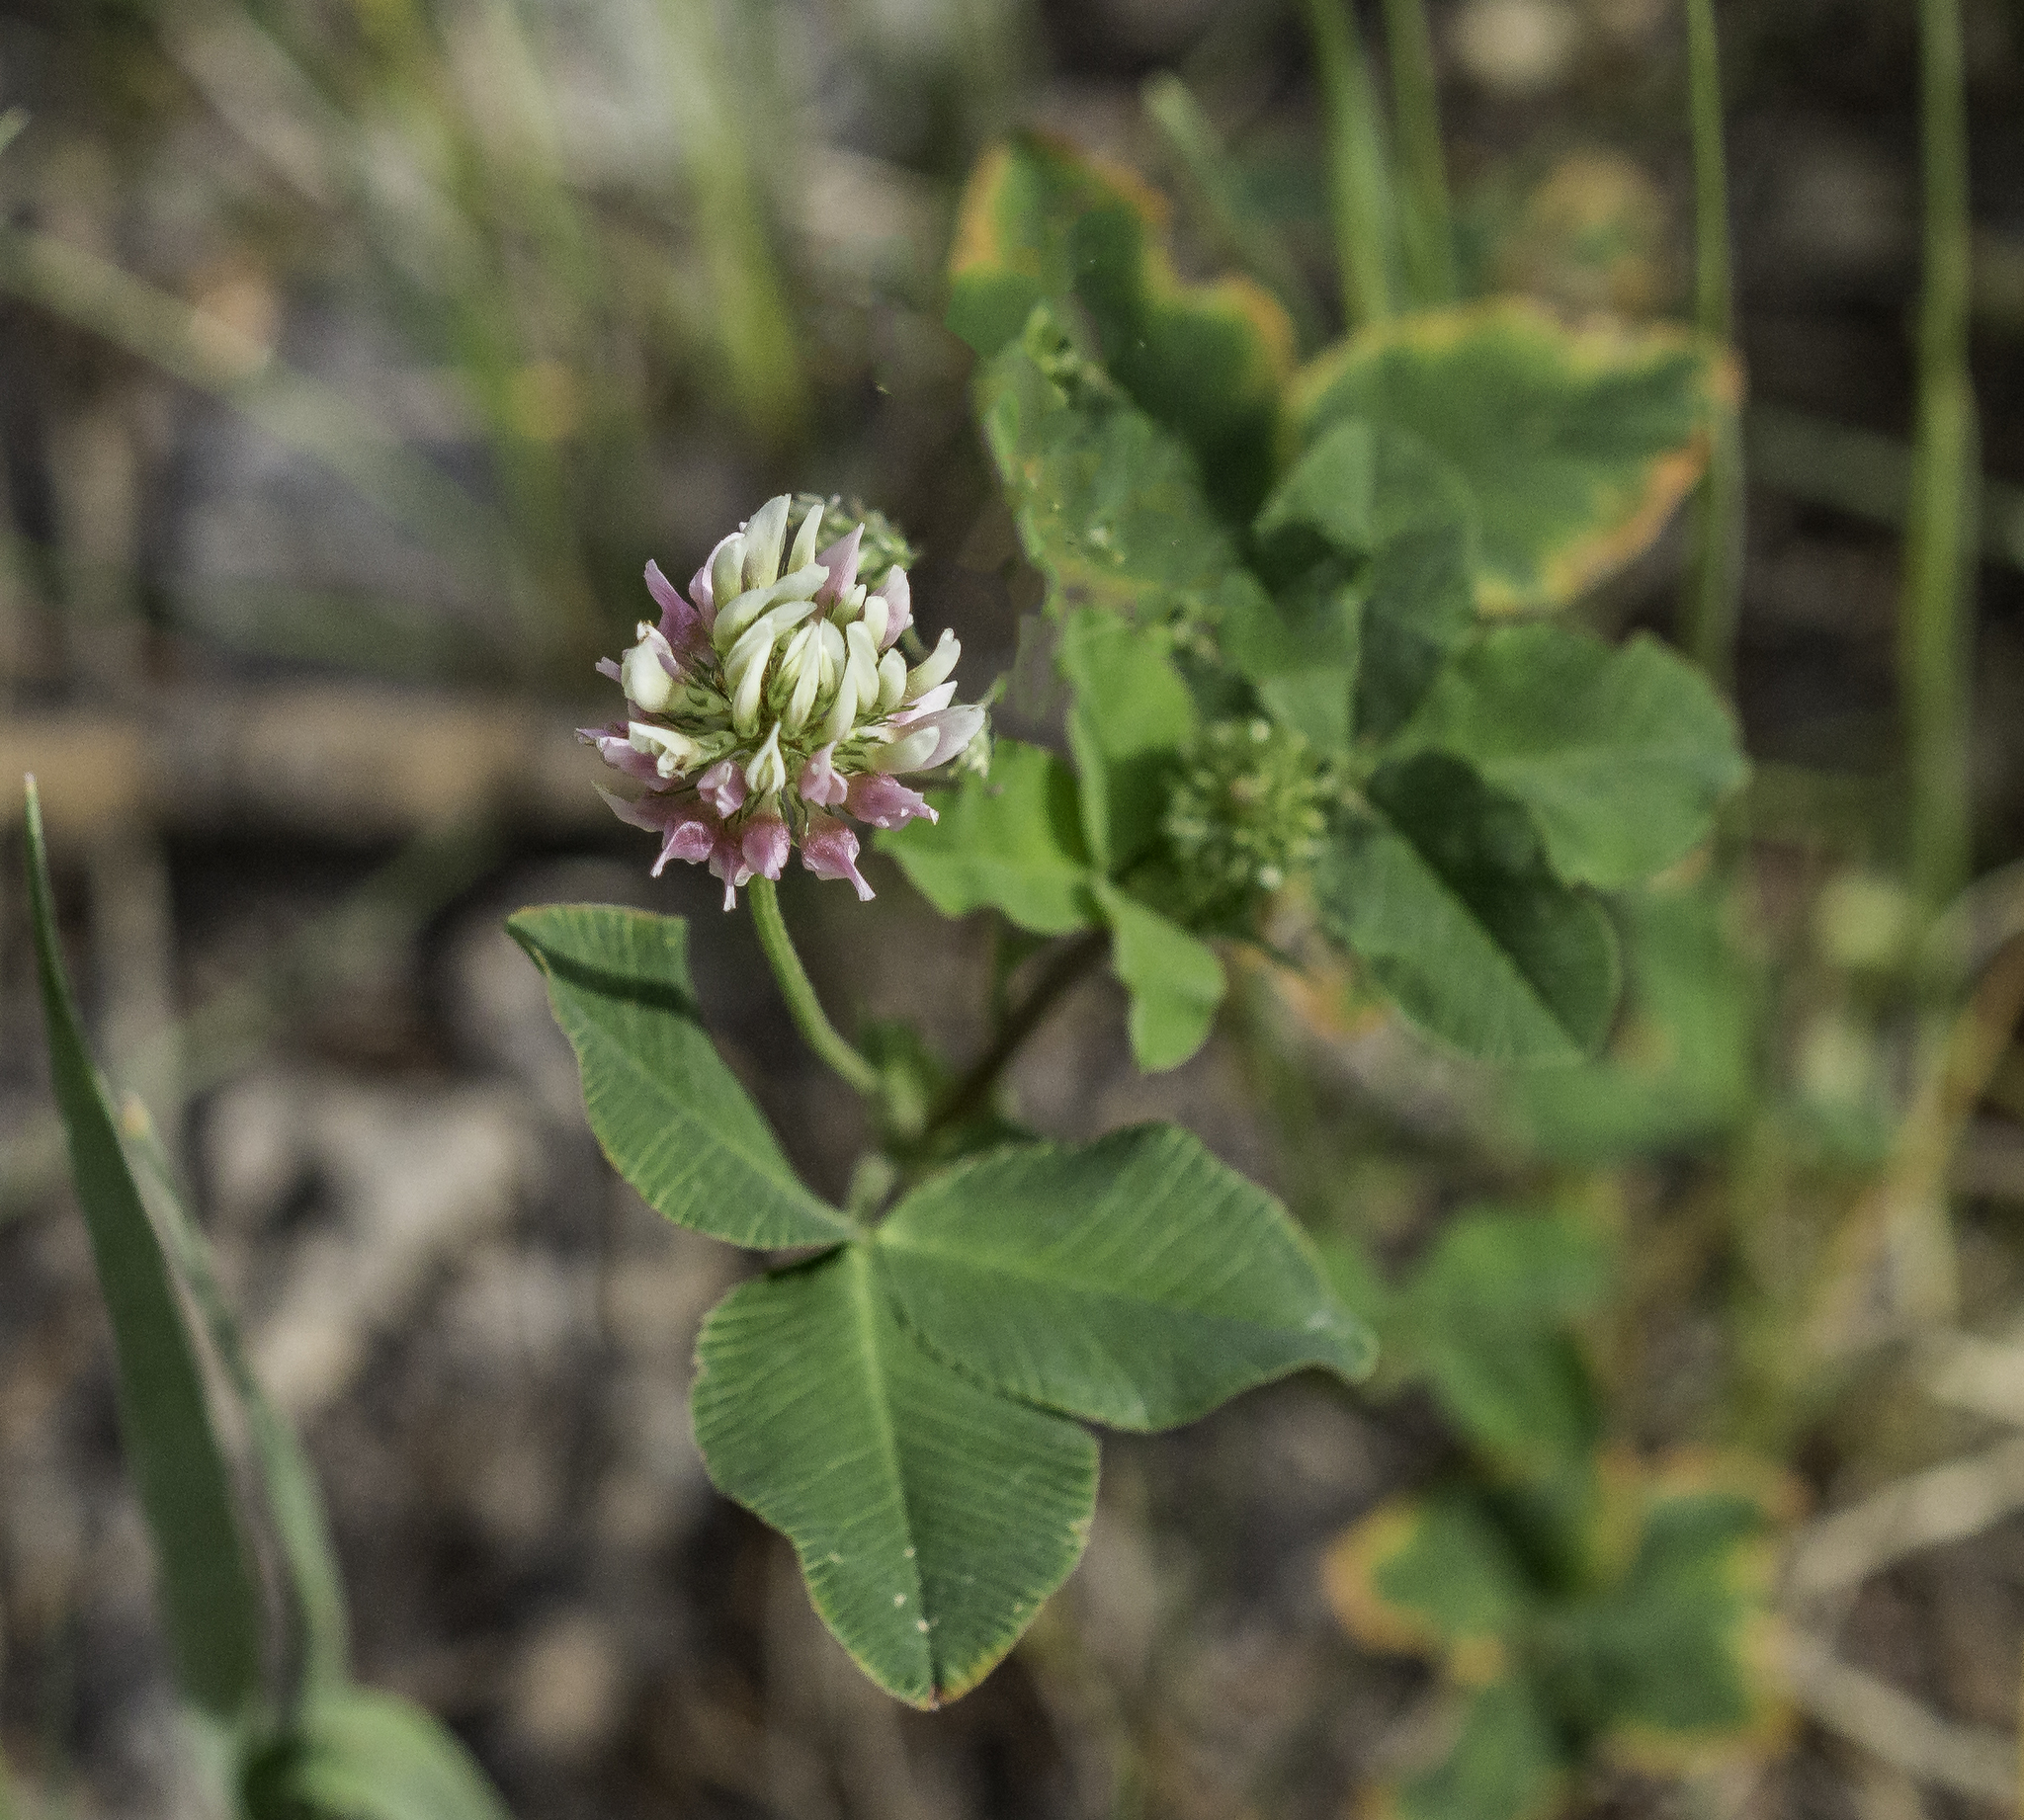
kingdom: Plantae
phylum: Tracheophyta
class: Magnoliopsida
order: Fabales
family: Fabaceae
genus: Trifolium
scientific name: Trifolium hybridum
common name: Alsike clover
